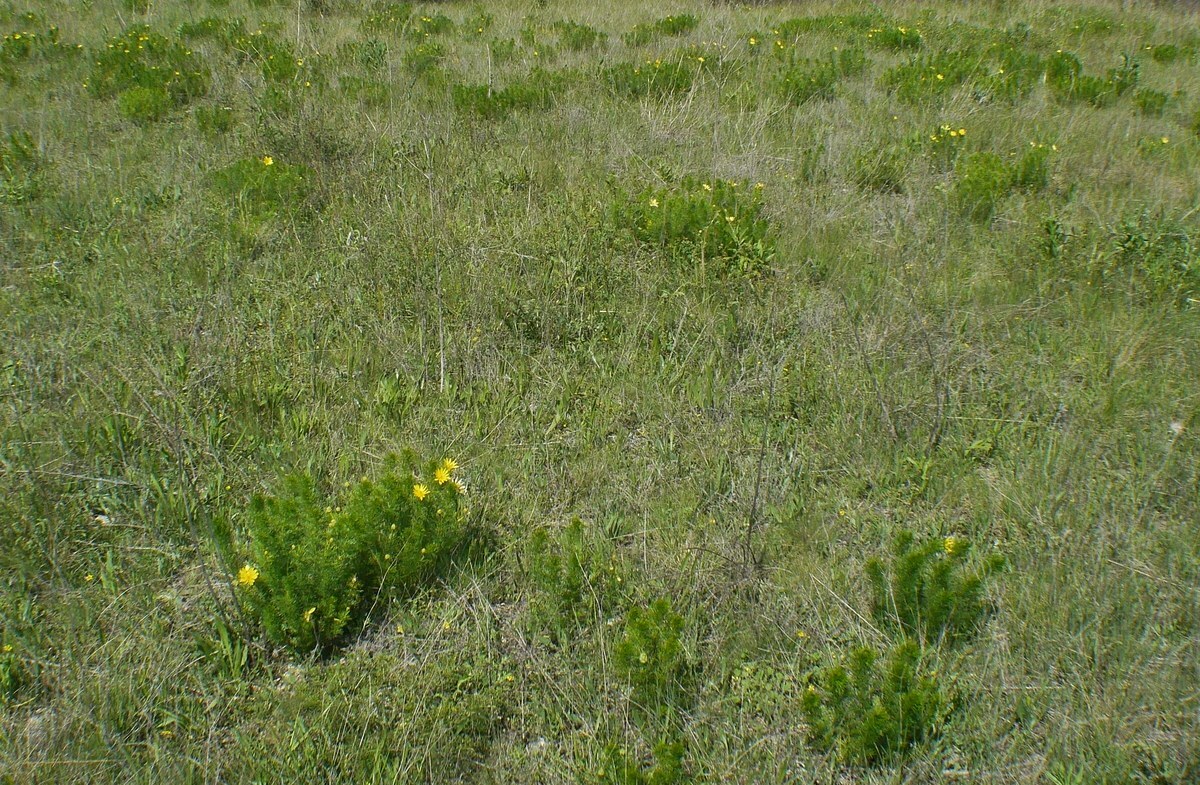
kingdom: Plantae
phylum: Tracheophyta
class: Magnoliopsida
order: Ranunculales
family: Ranunculaceae
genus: Adonis
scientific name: Adonis vernalis
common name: Yellow pheasants-eye
